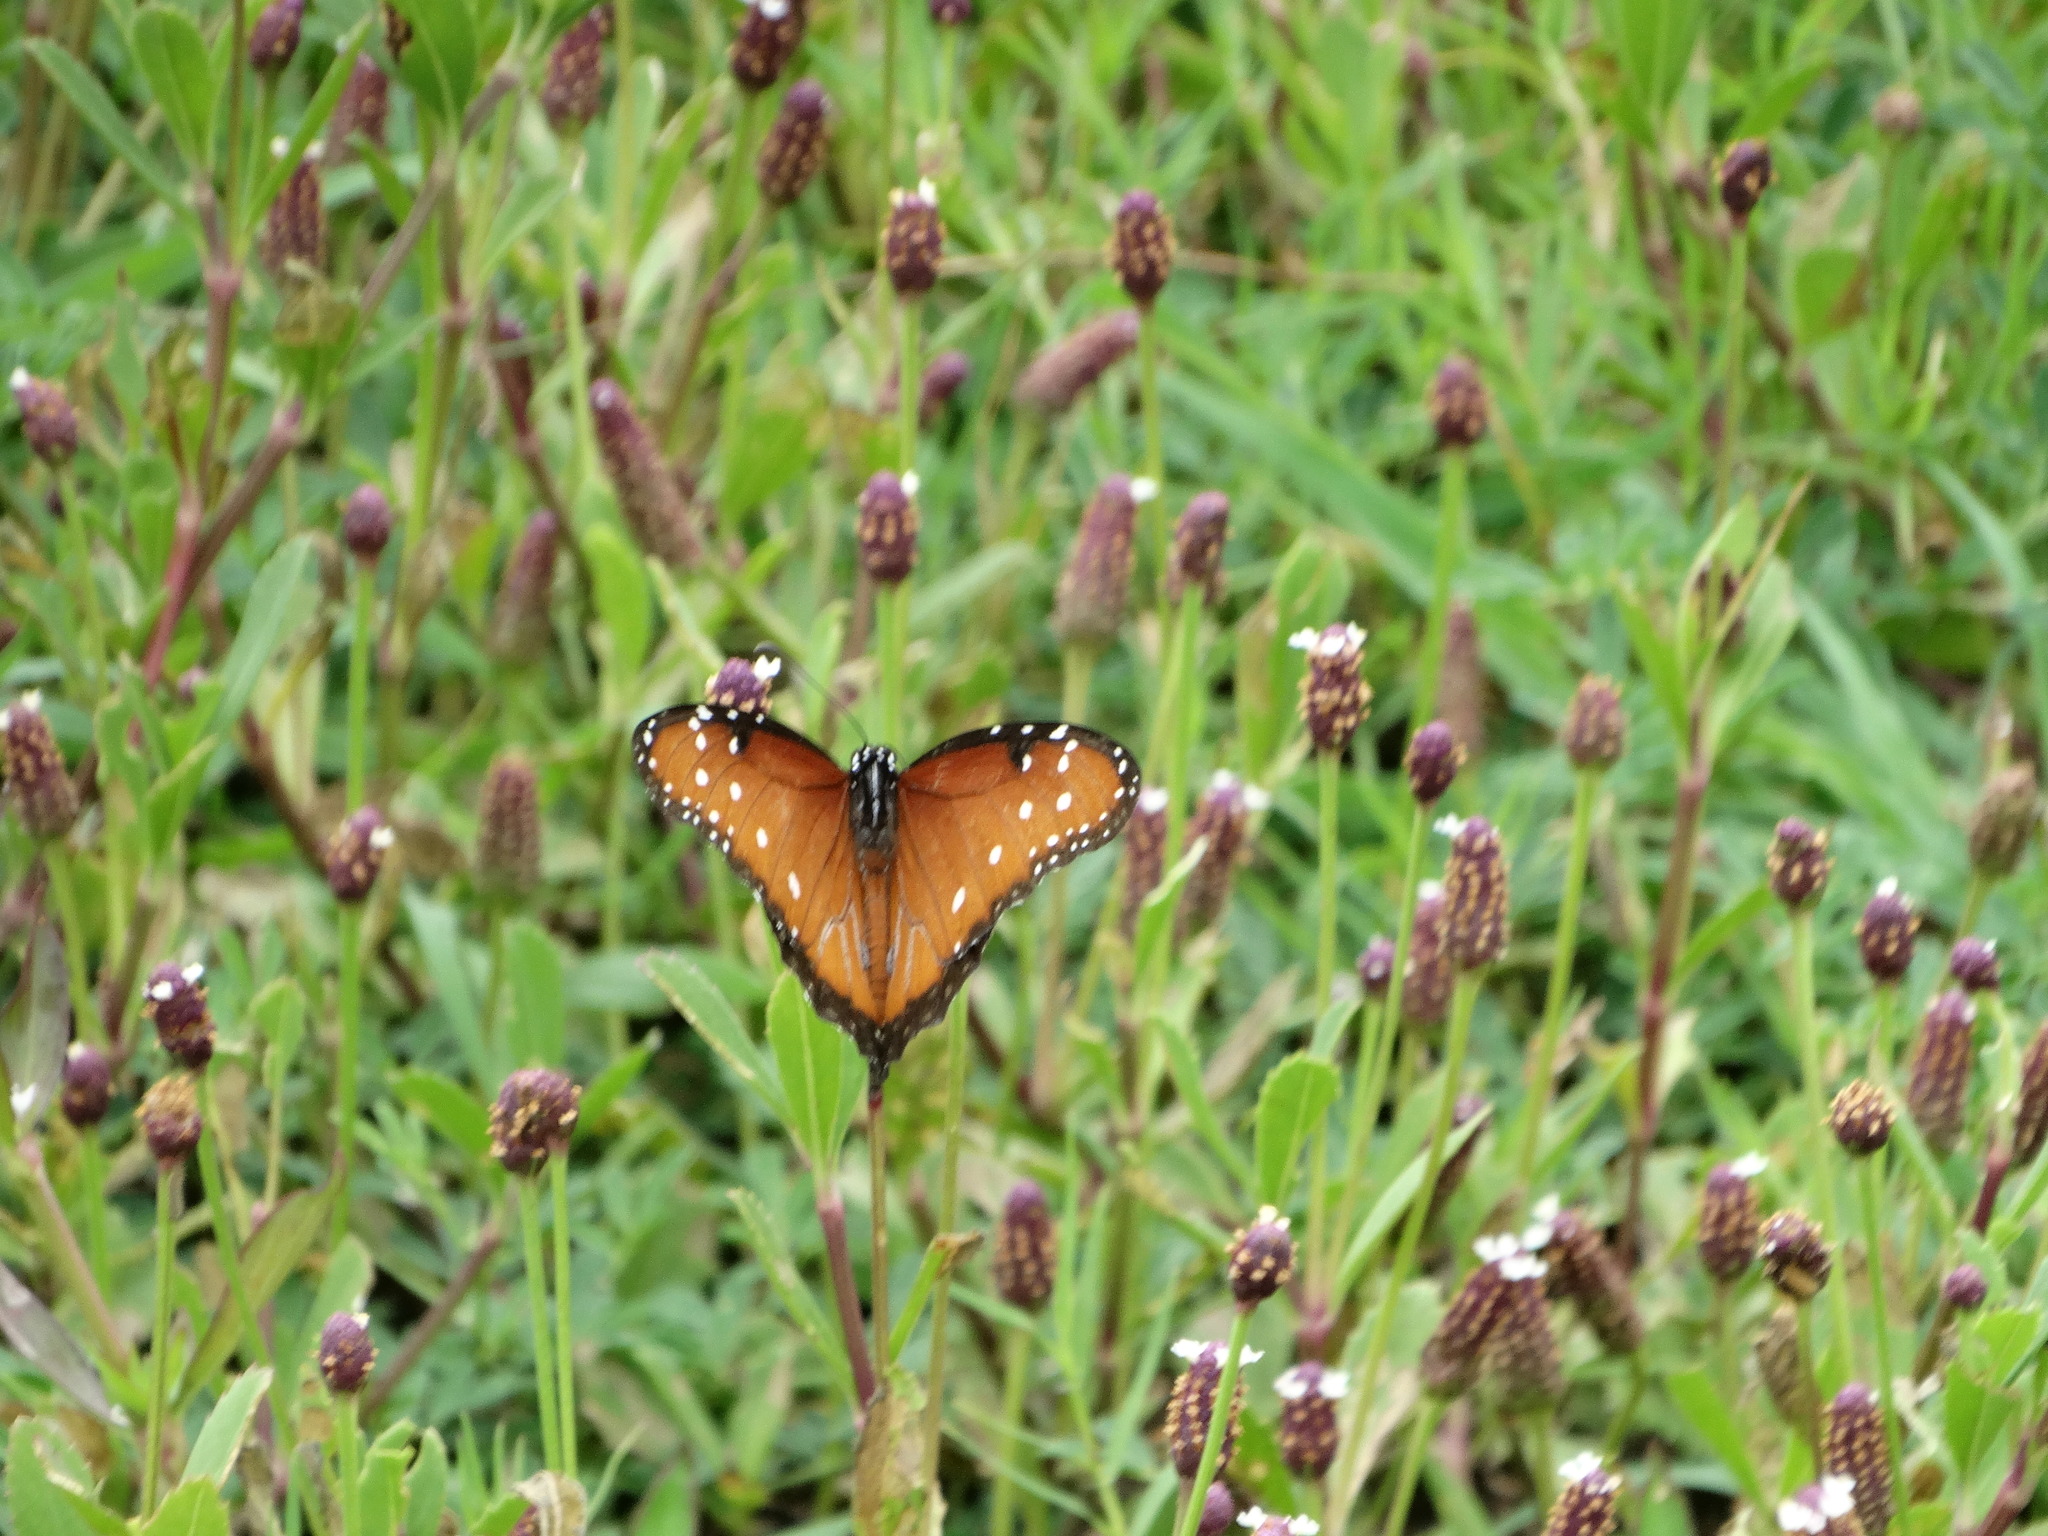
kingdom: Animalia
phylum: Arthropoda
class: Insecta
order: Lepidoptera
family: Nymphalidae
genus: Danaus
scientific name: Danaus gilippus
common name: Queen
